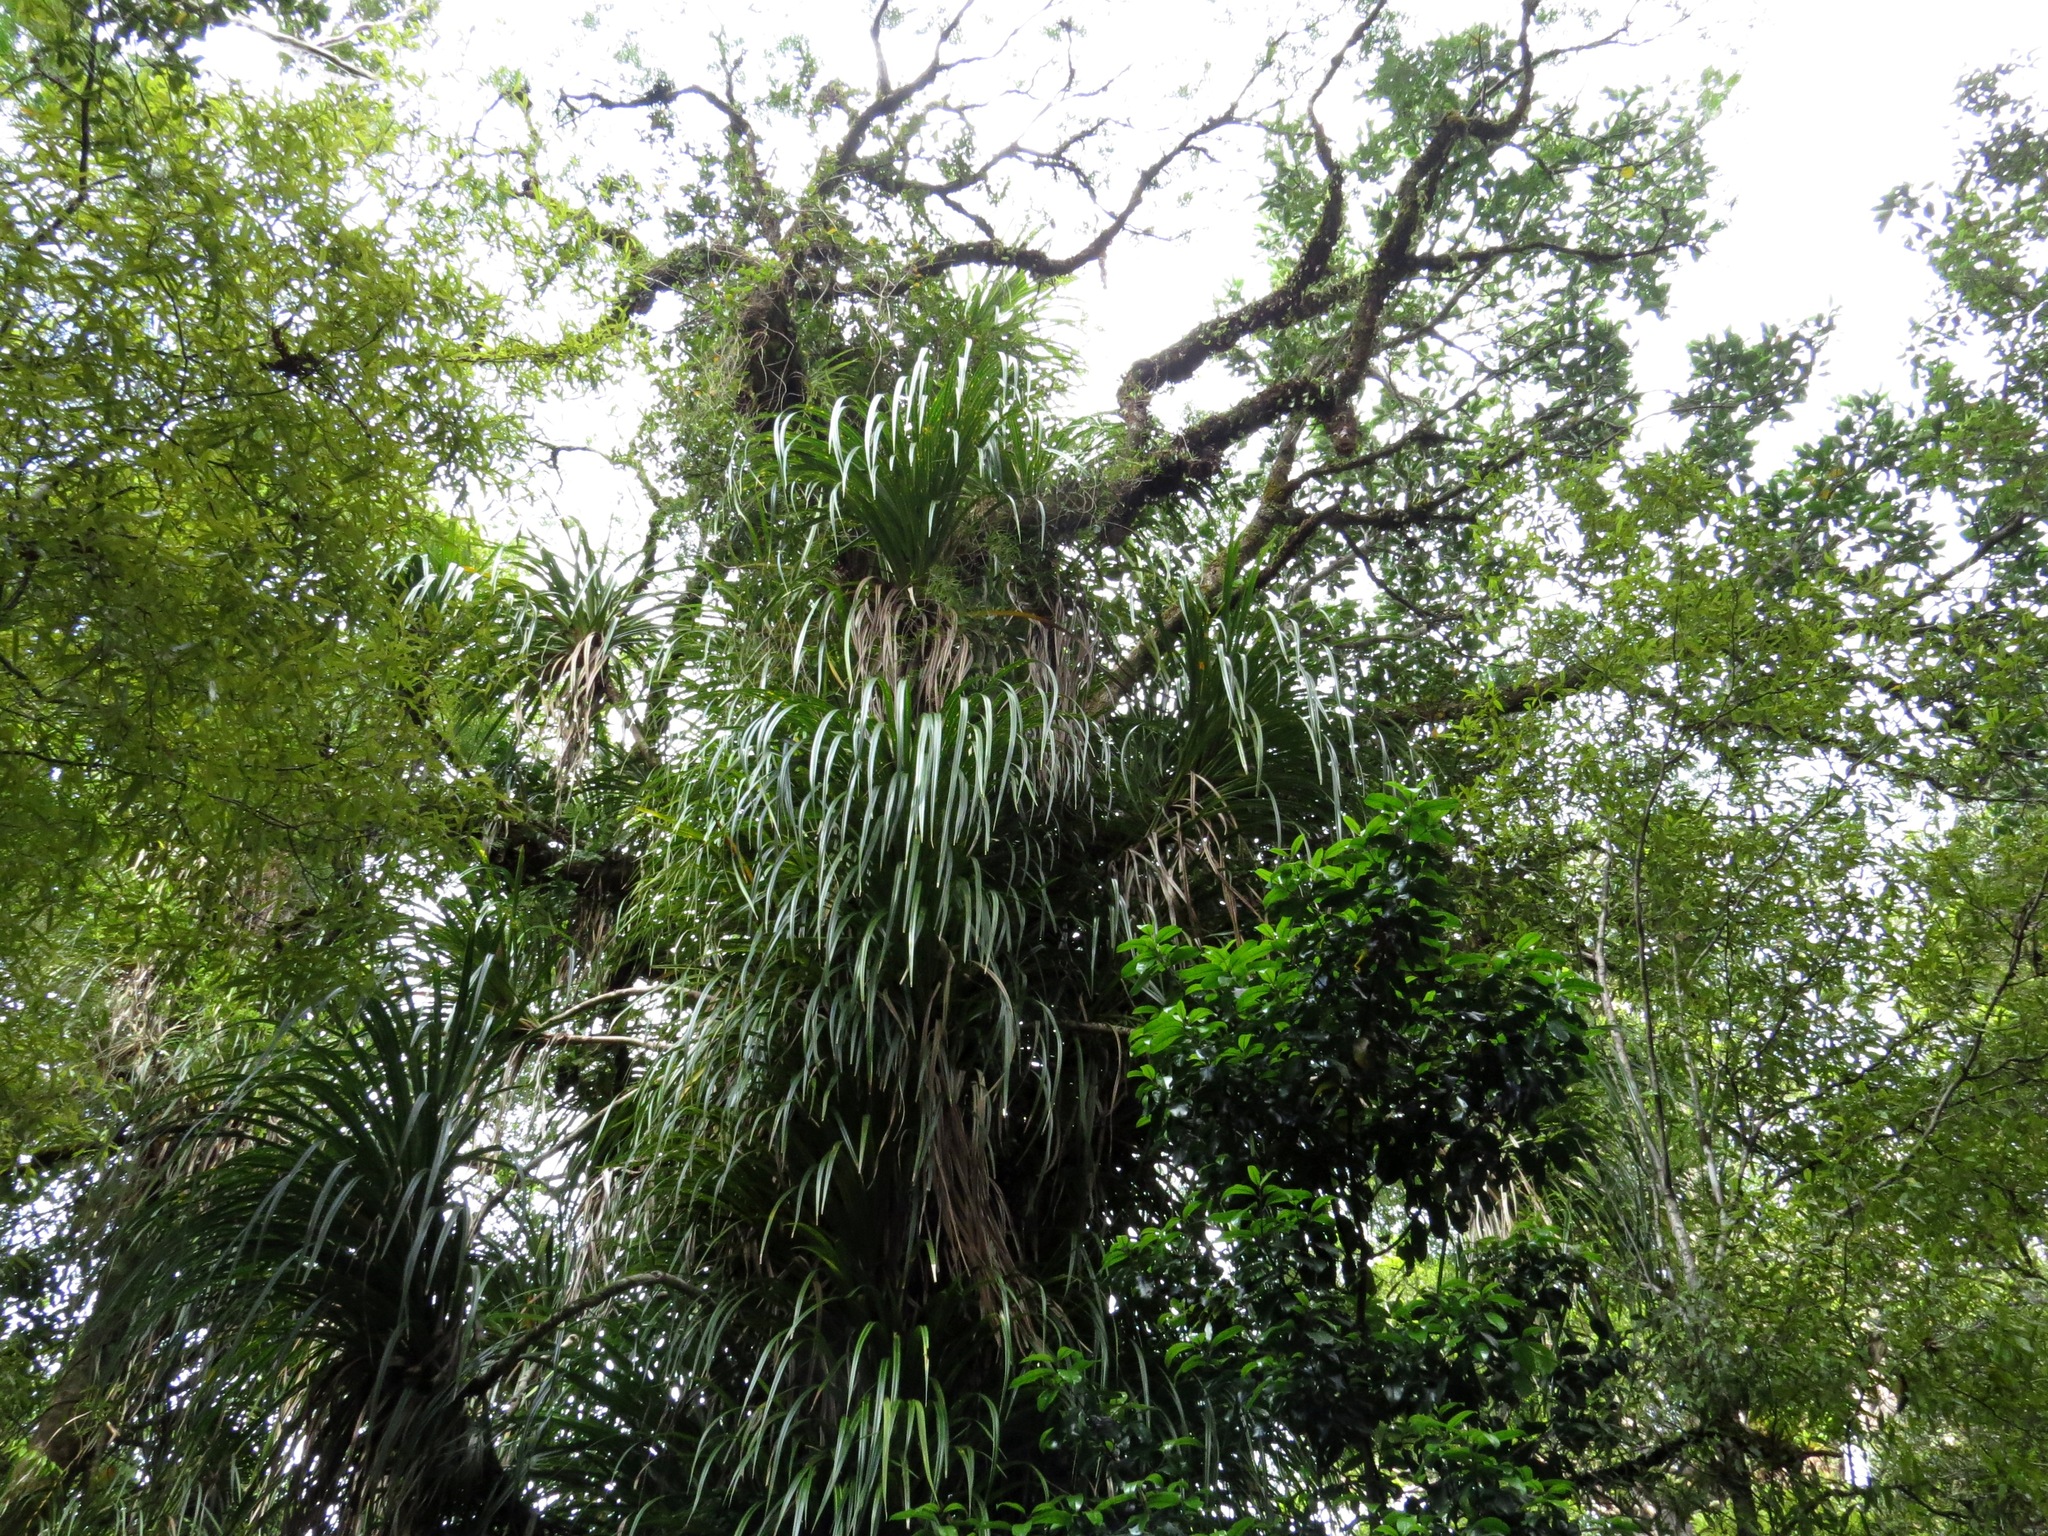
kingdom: Plantae
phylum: Tracheophyta
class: Liliopsida
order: Pandanales
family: Pandanaceae
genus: Freycinetia
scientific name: Freycinetia banksii
